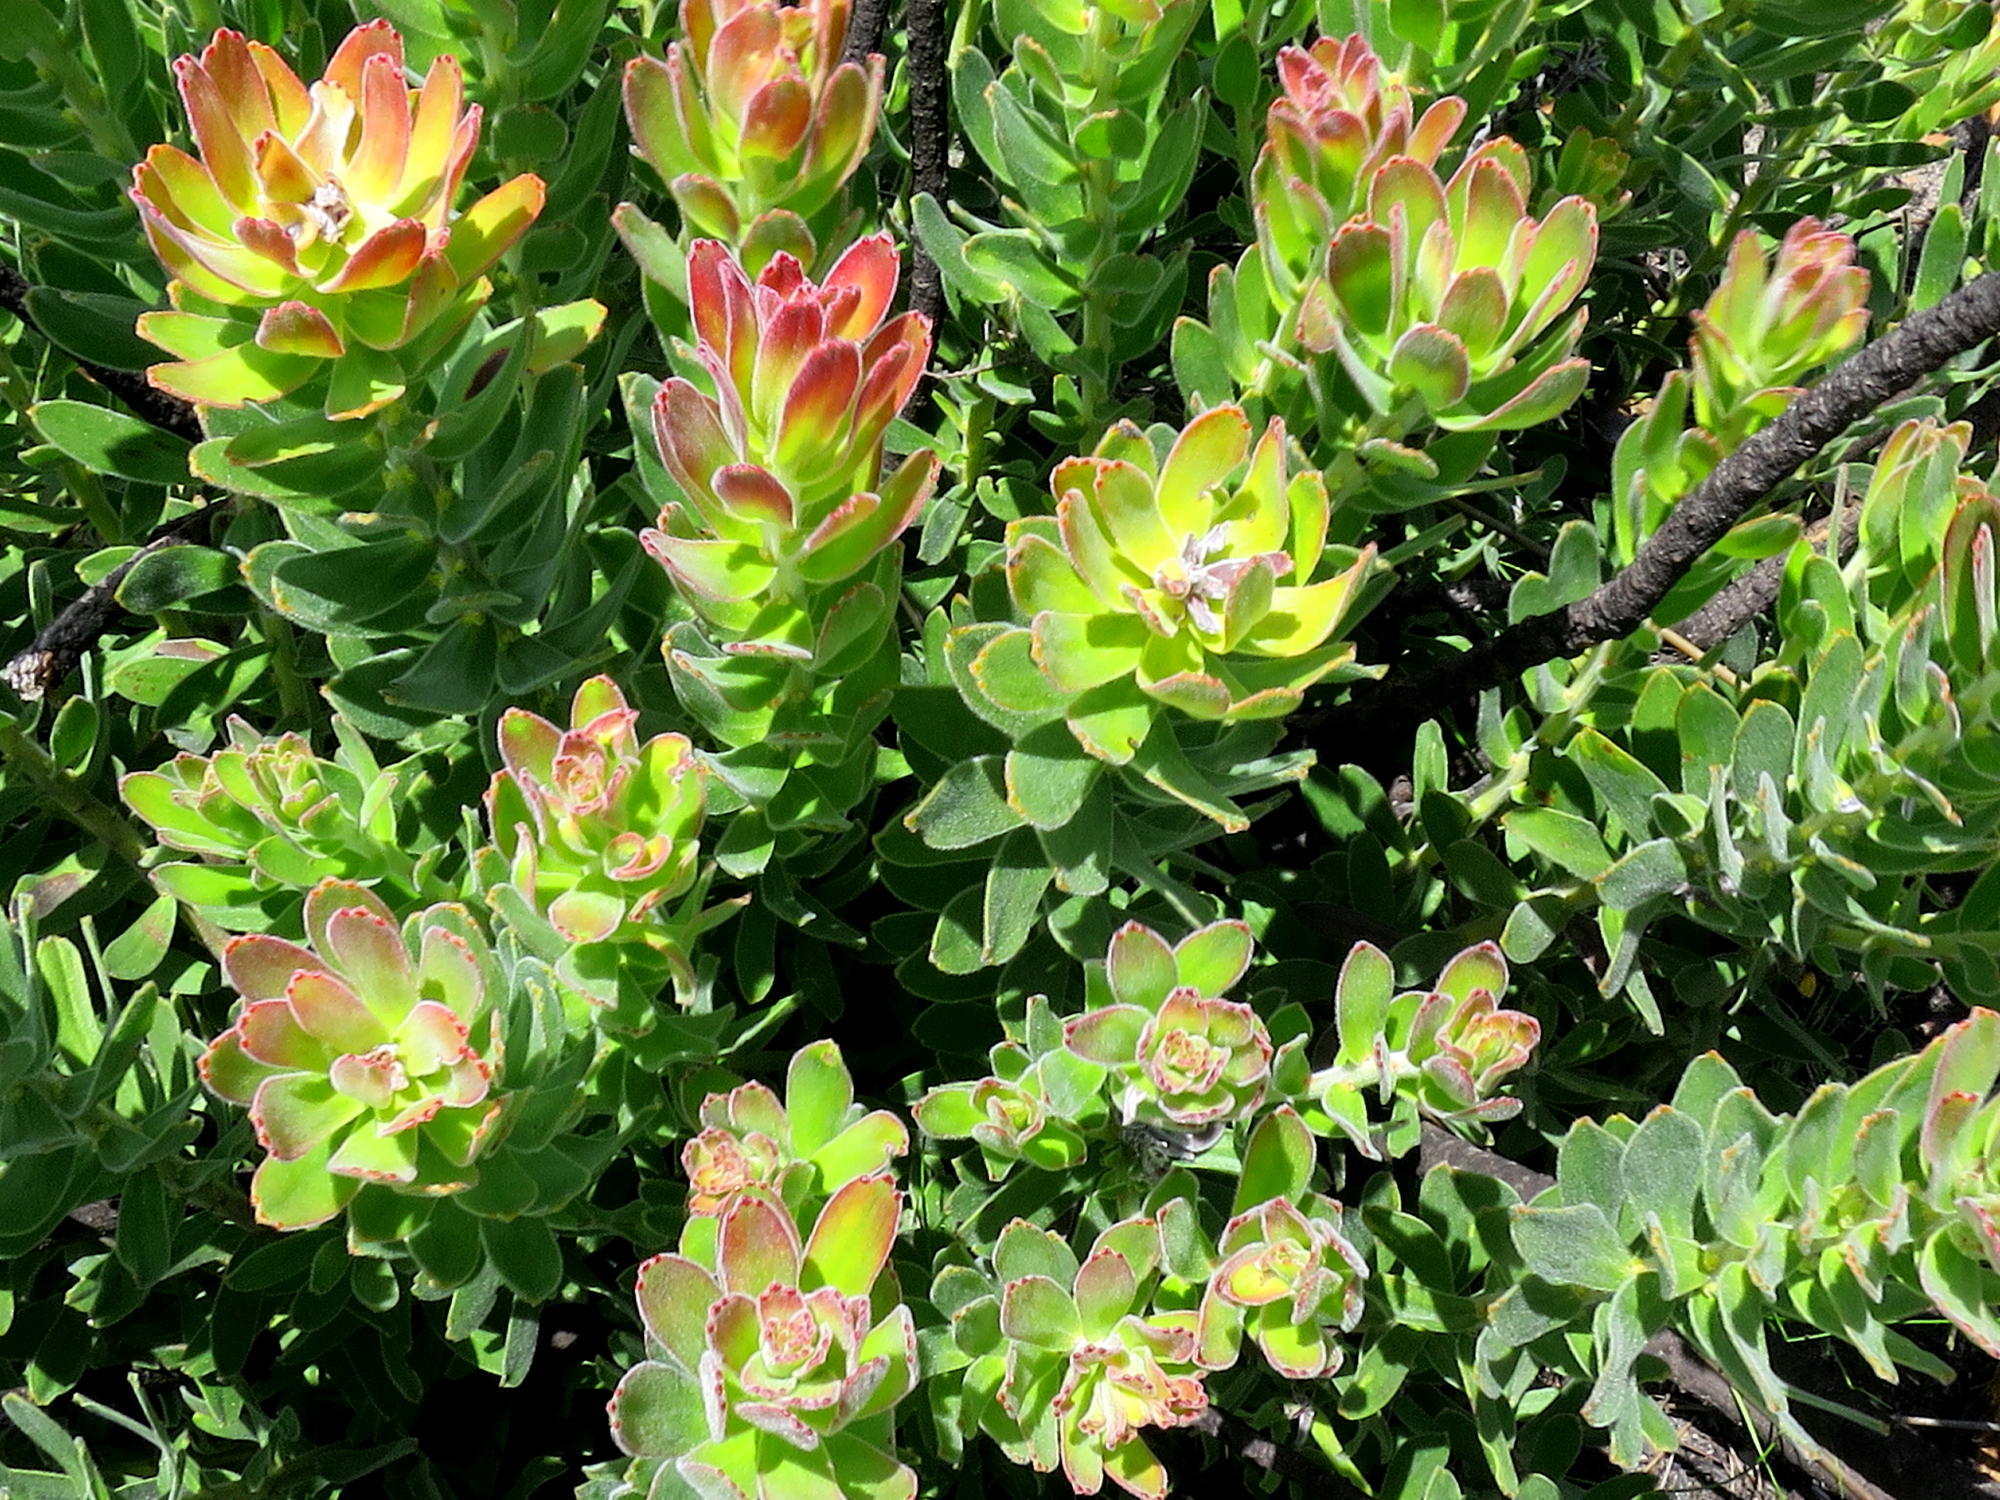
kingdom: Plantae
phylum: Tracheophyta
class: Magnoliopsida
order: Proteales
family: Proteaceae
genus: Mimetes
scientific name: Mimetes cucullatus
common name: Common pagoda
